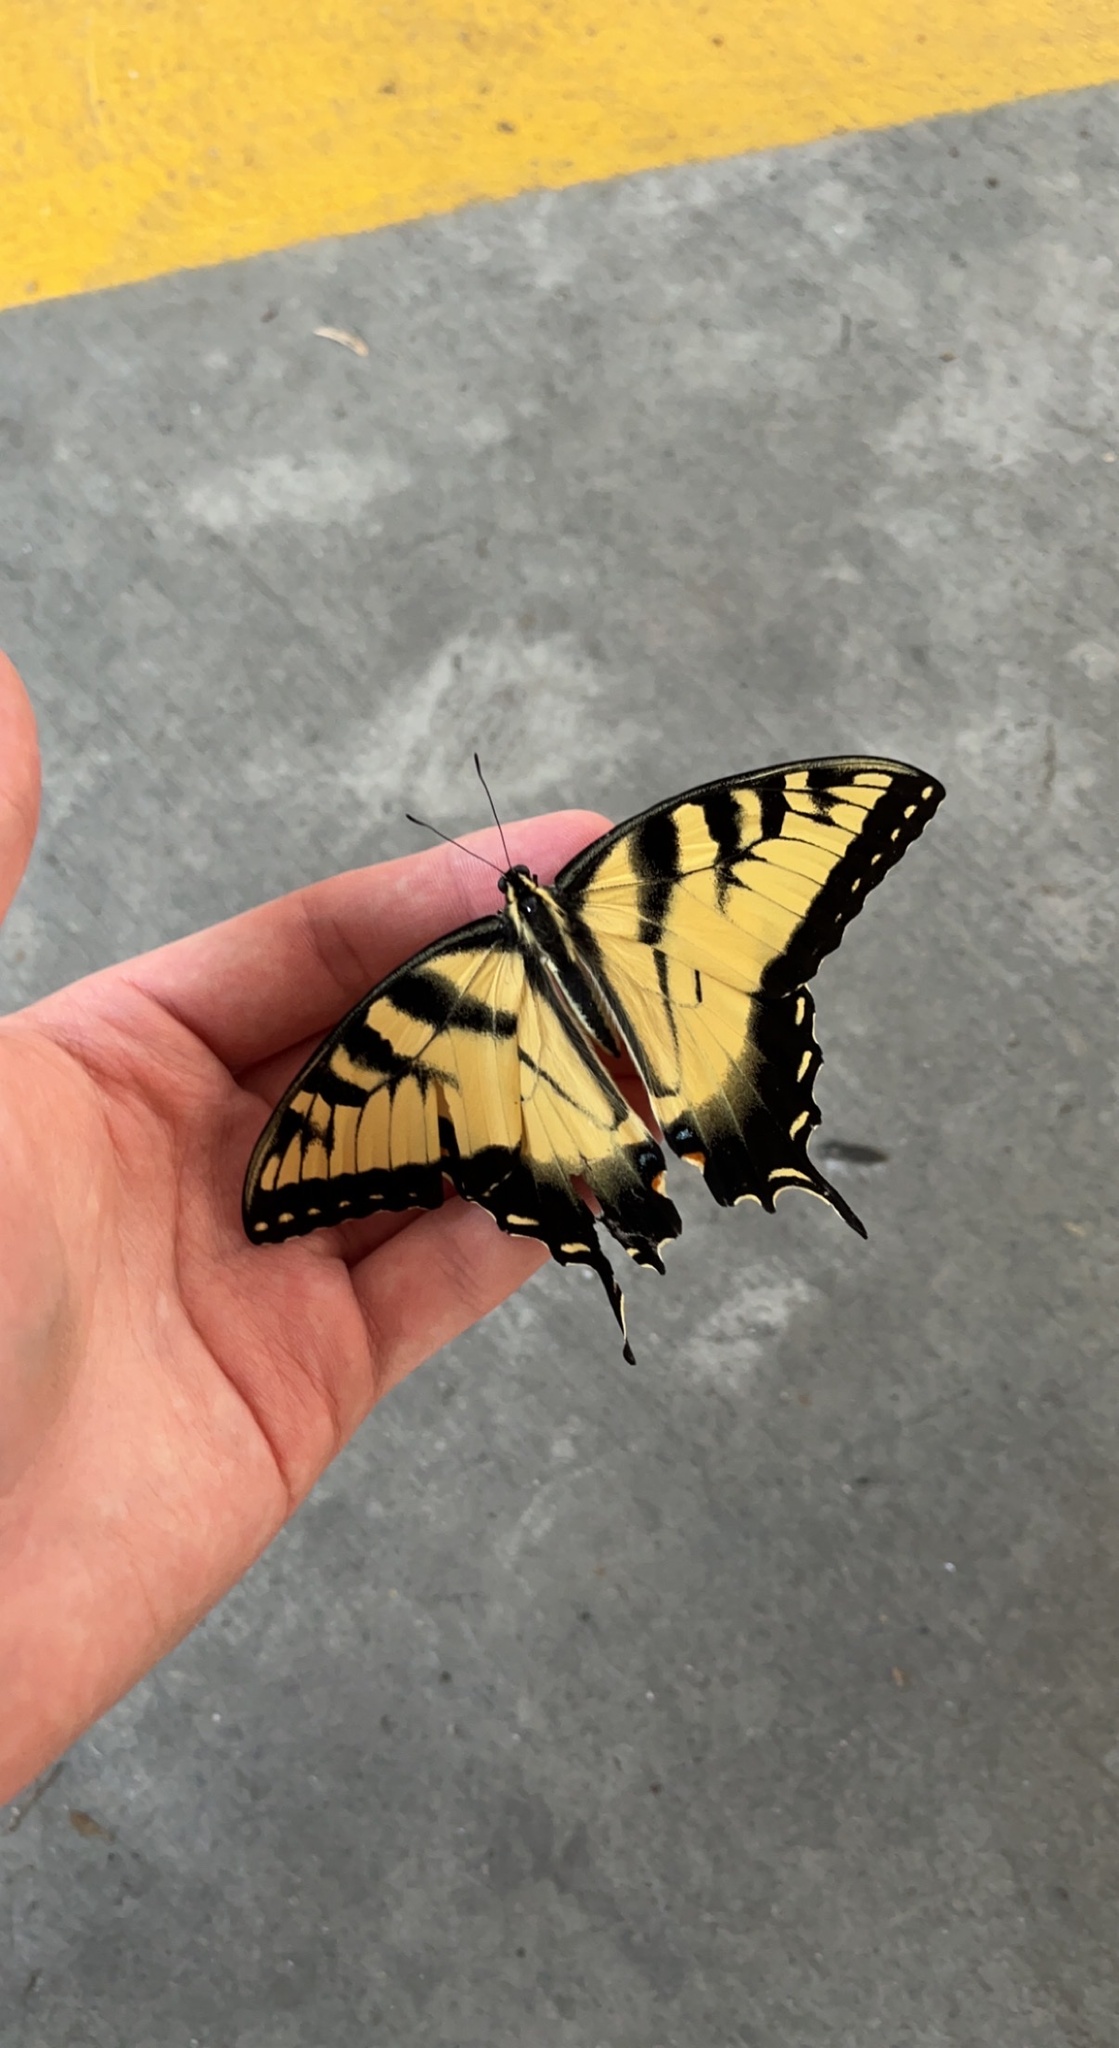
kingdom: Animalia
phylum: Arthropoda
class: Insecta
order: Lepidoptera
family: Papilionidae
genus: Papilio
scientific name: Papilio glaucus
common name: Tiger swallowtail
